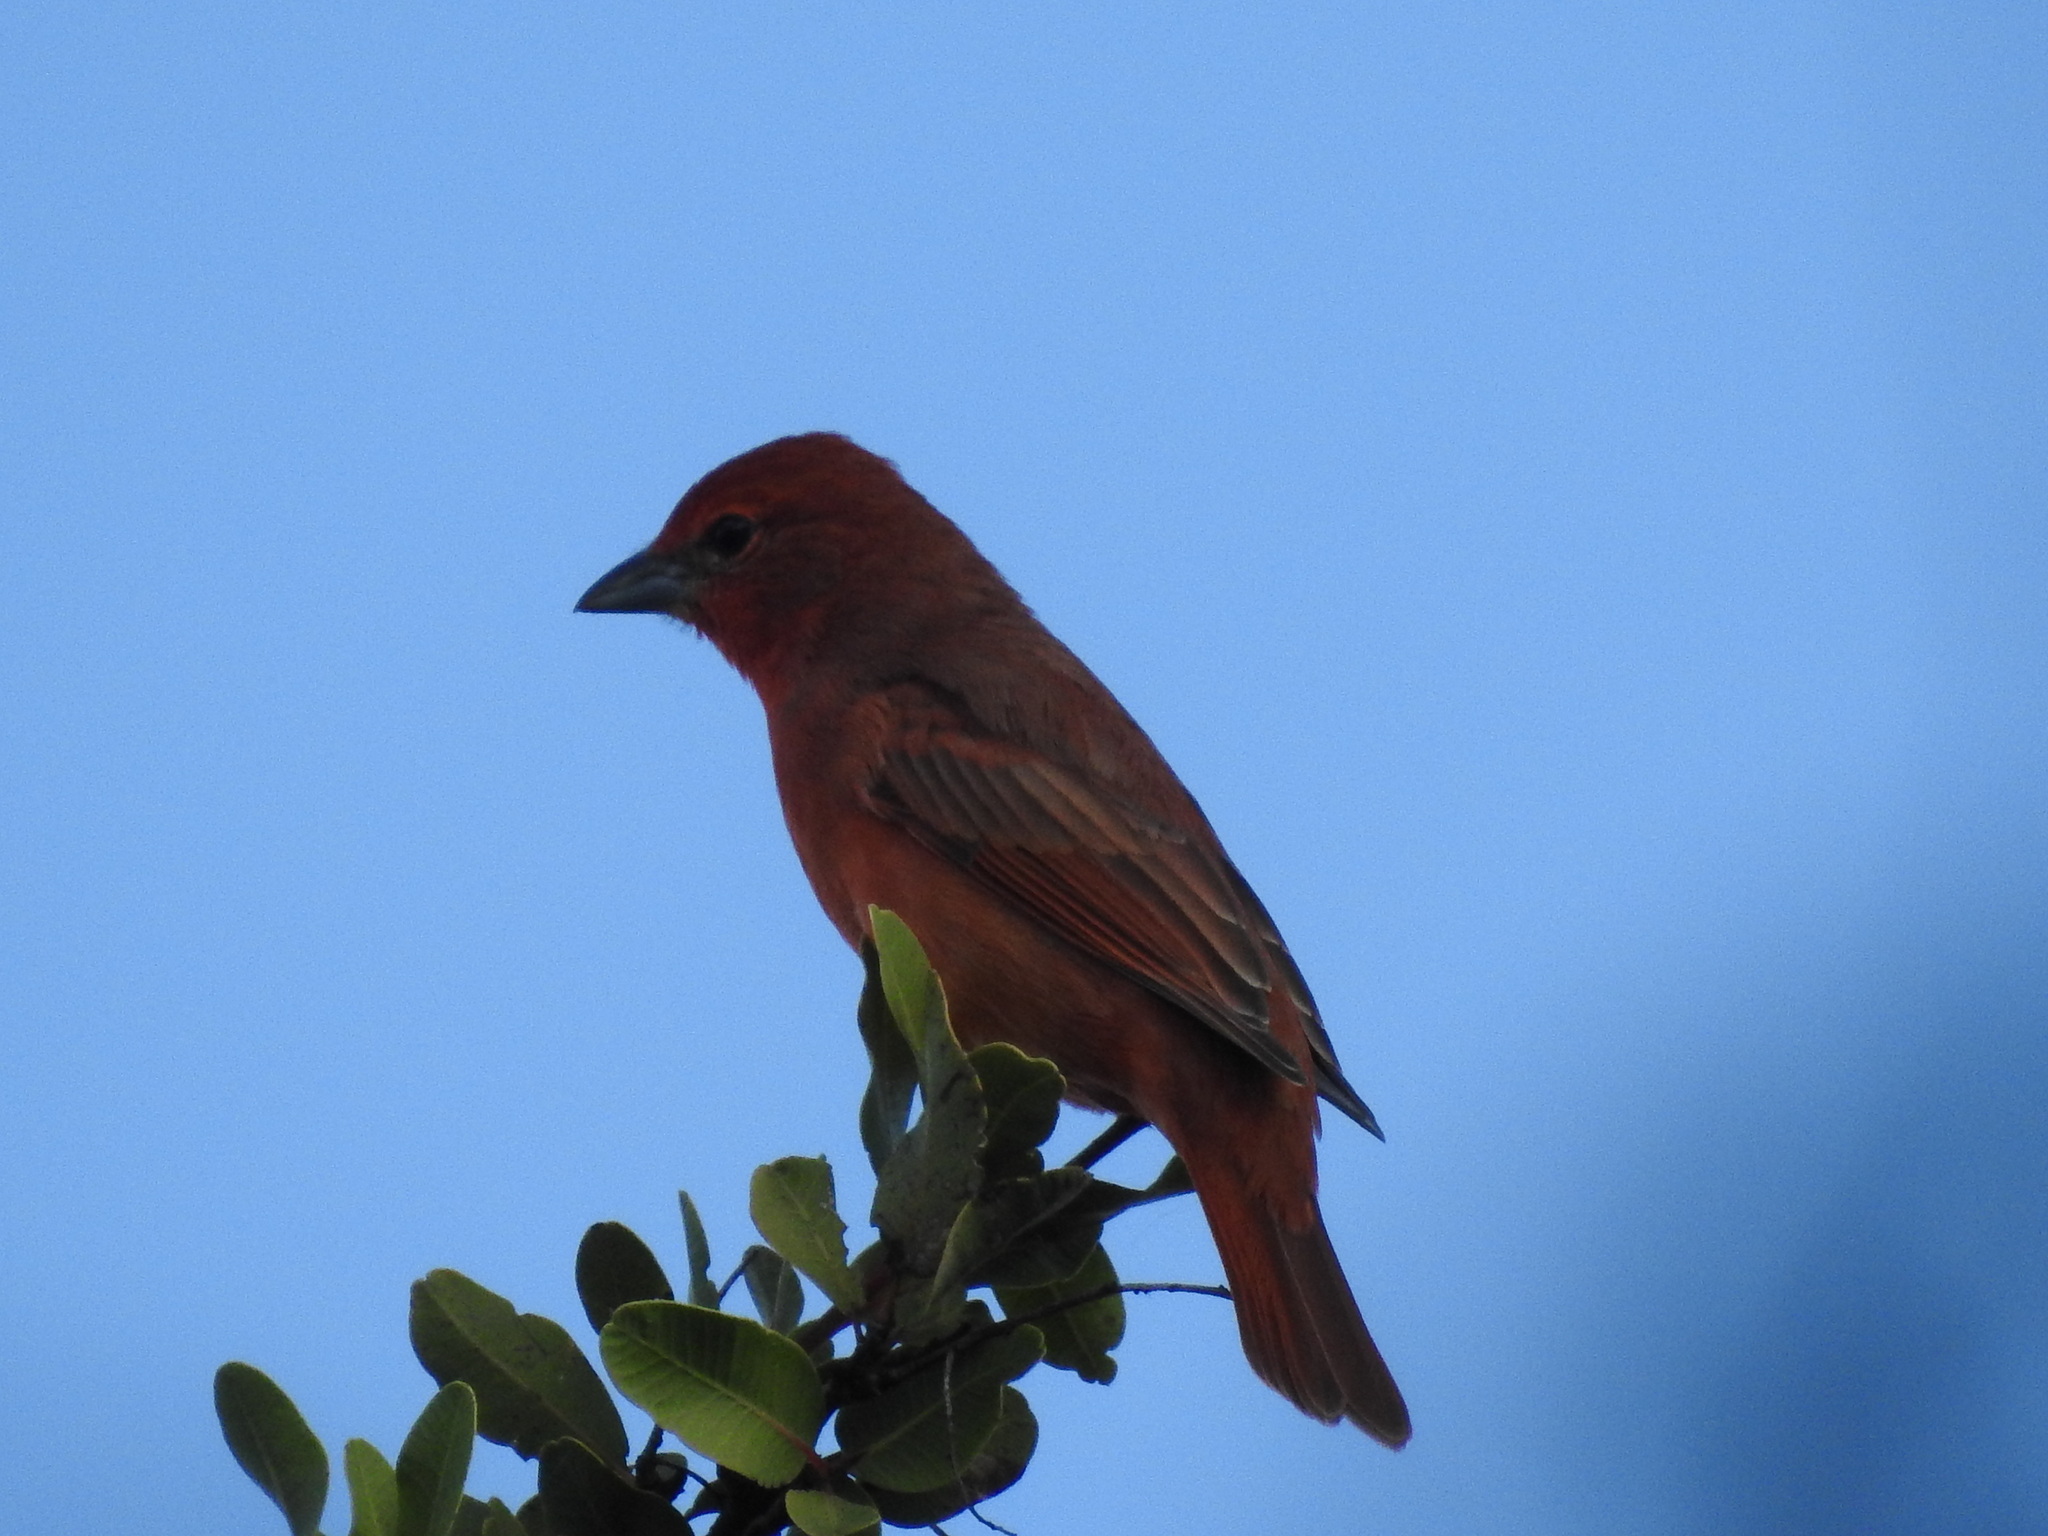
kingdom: Animalia
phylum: Chordata
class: Aves
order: Passeriformes
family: Cardinalidae
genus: Piranga
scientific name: Piranga flava
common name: Red tanager
